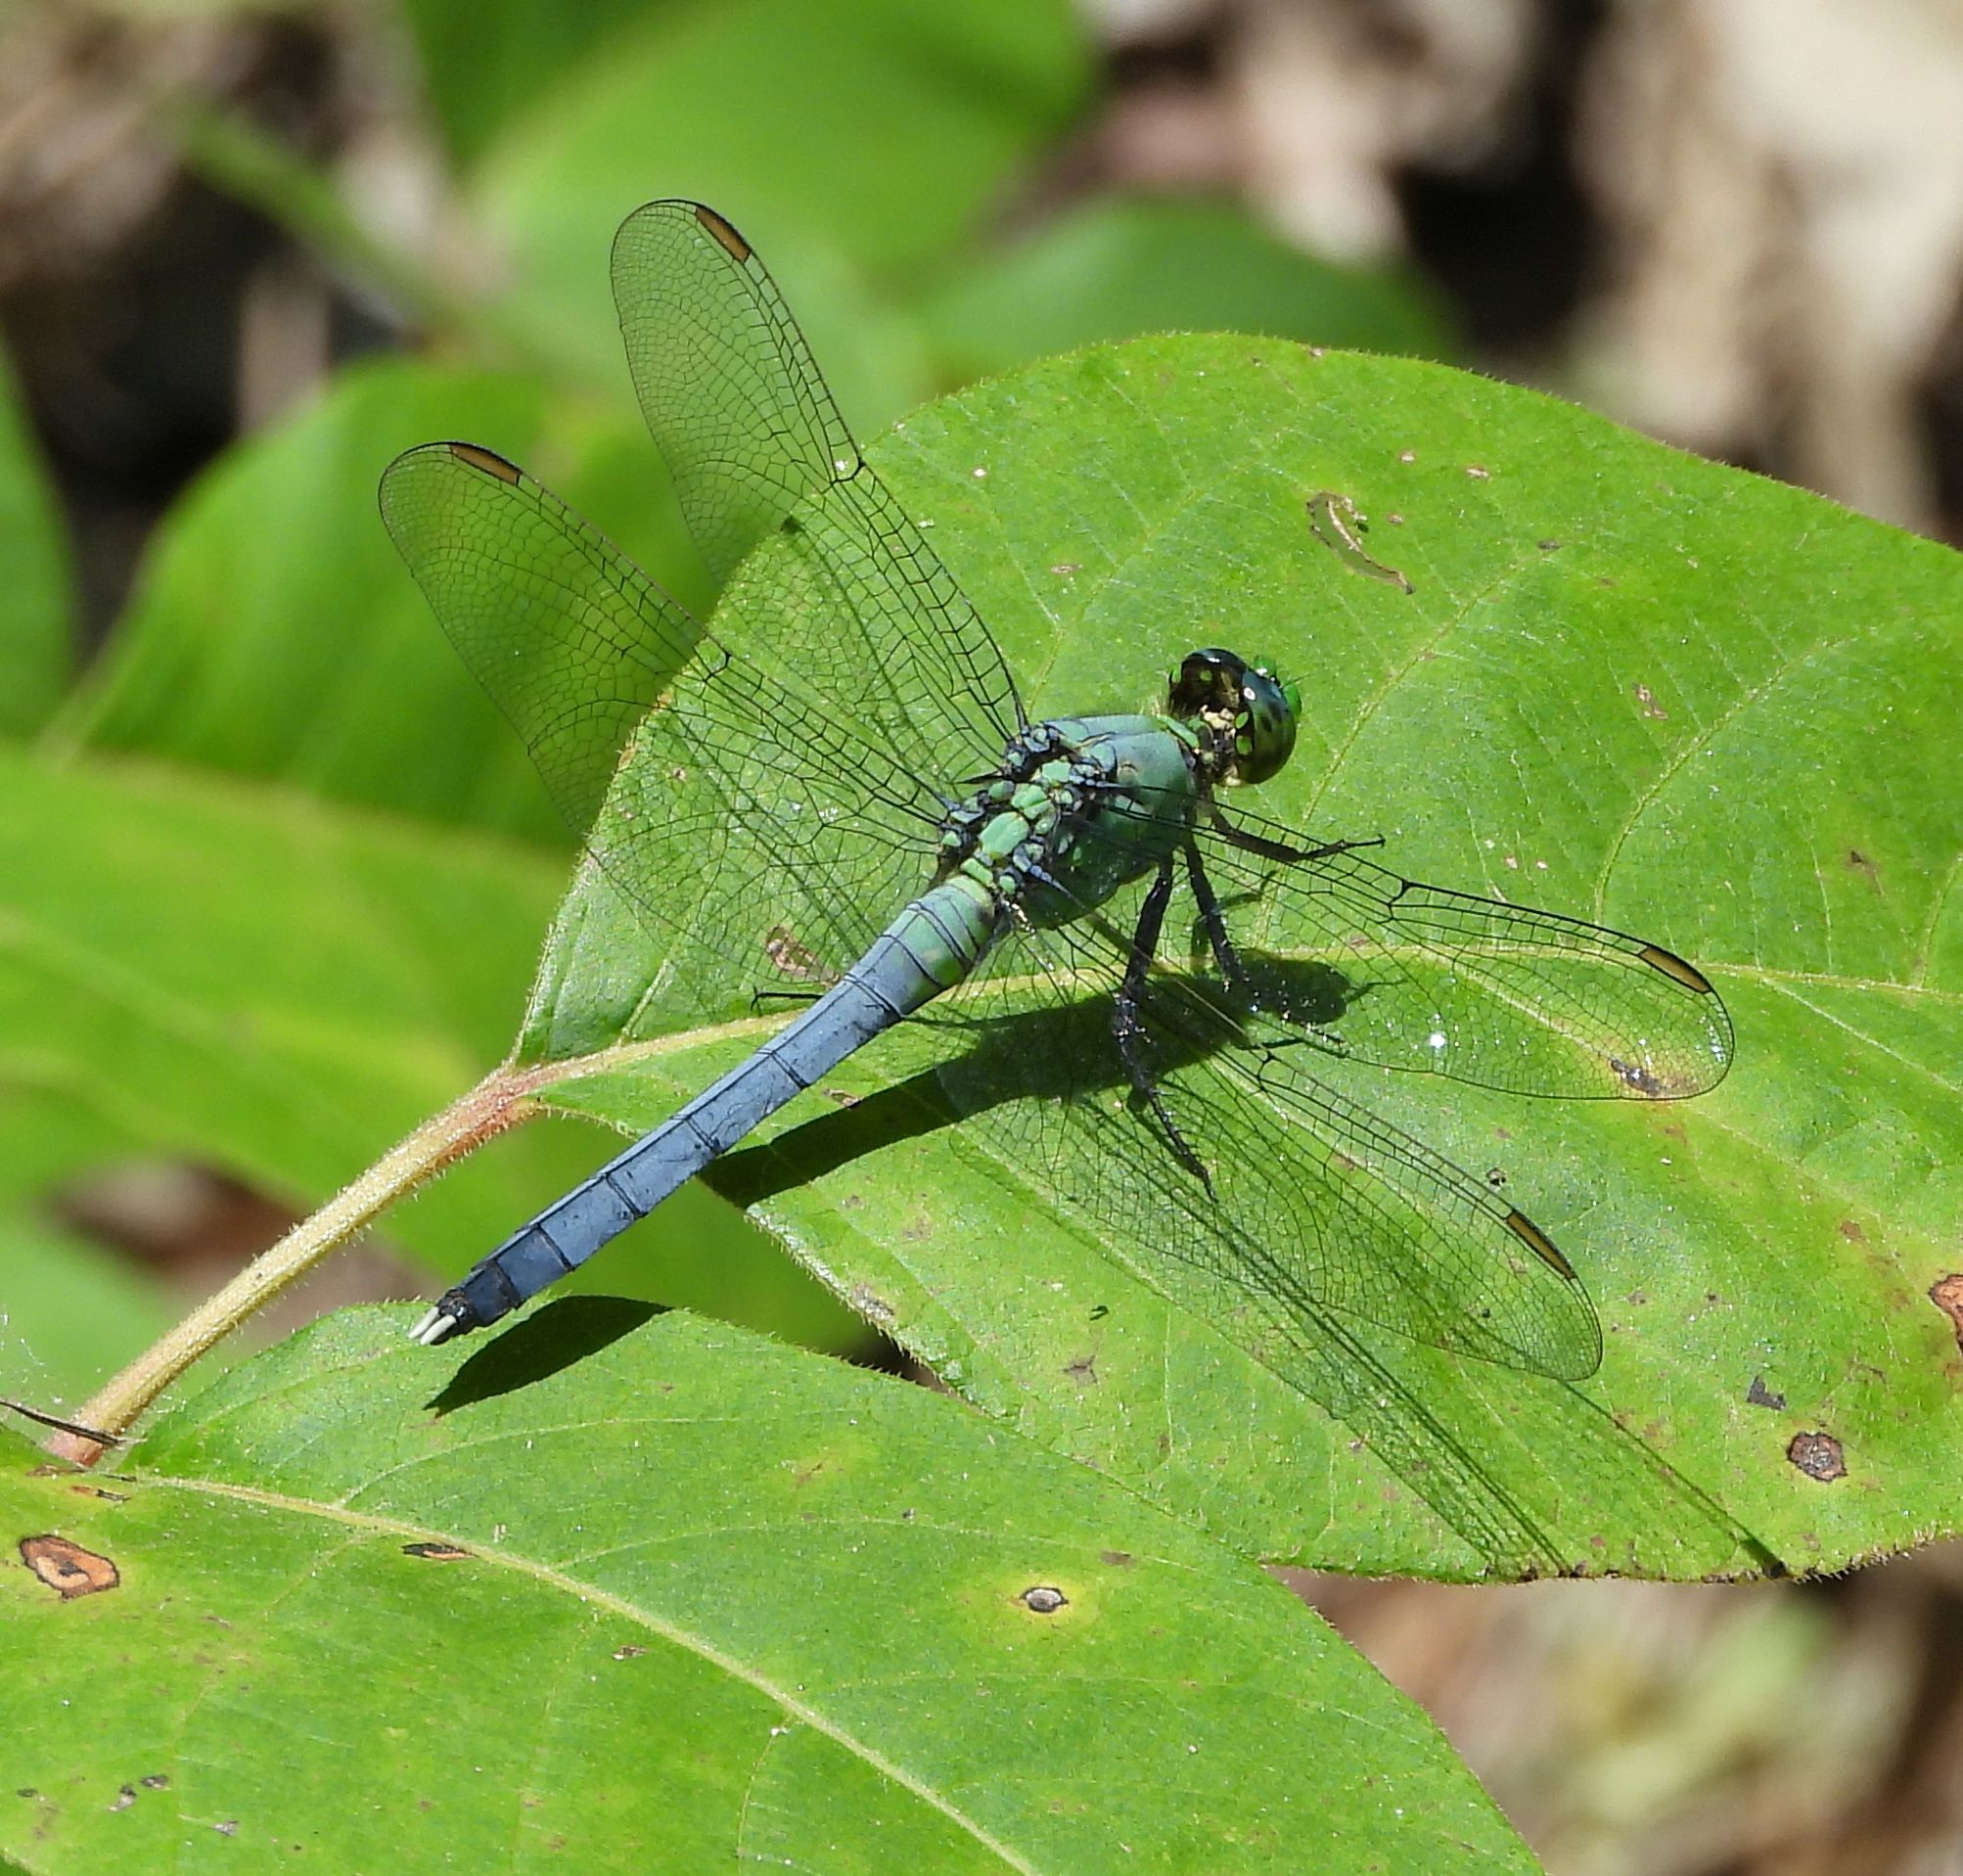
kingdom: Animalia
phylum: Arthropoda
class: Insecta
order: Odonata
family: Libellulidae
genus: Erythemis
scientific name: Erythemis simplicicollis
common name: Eastern pondhawk
